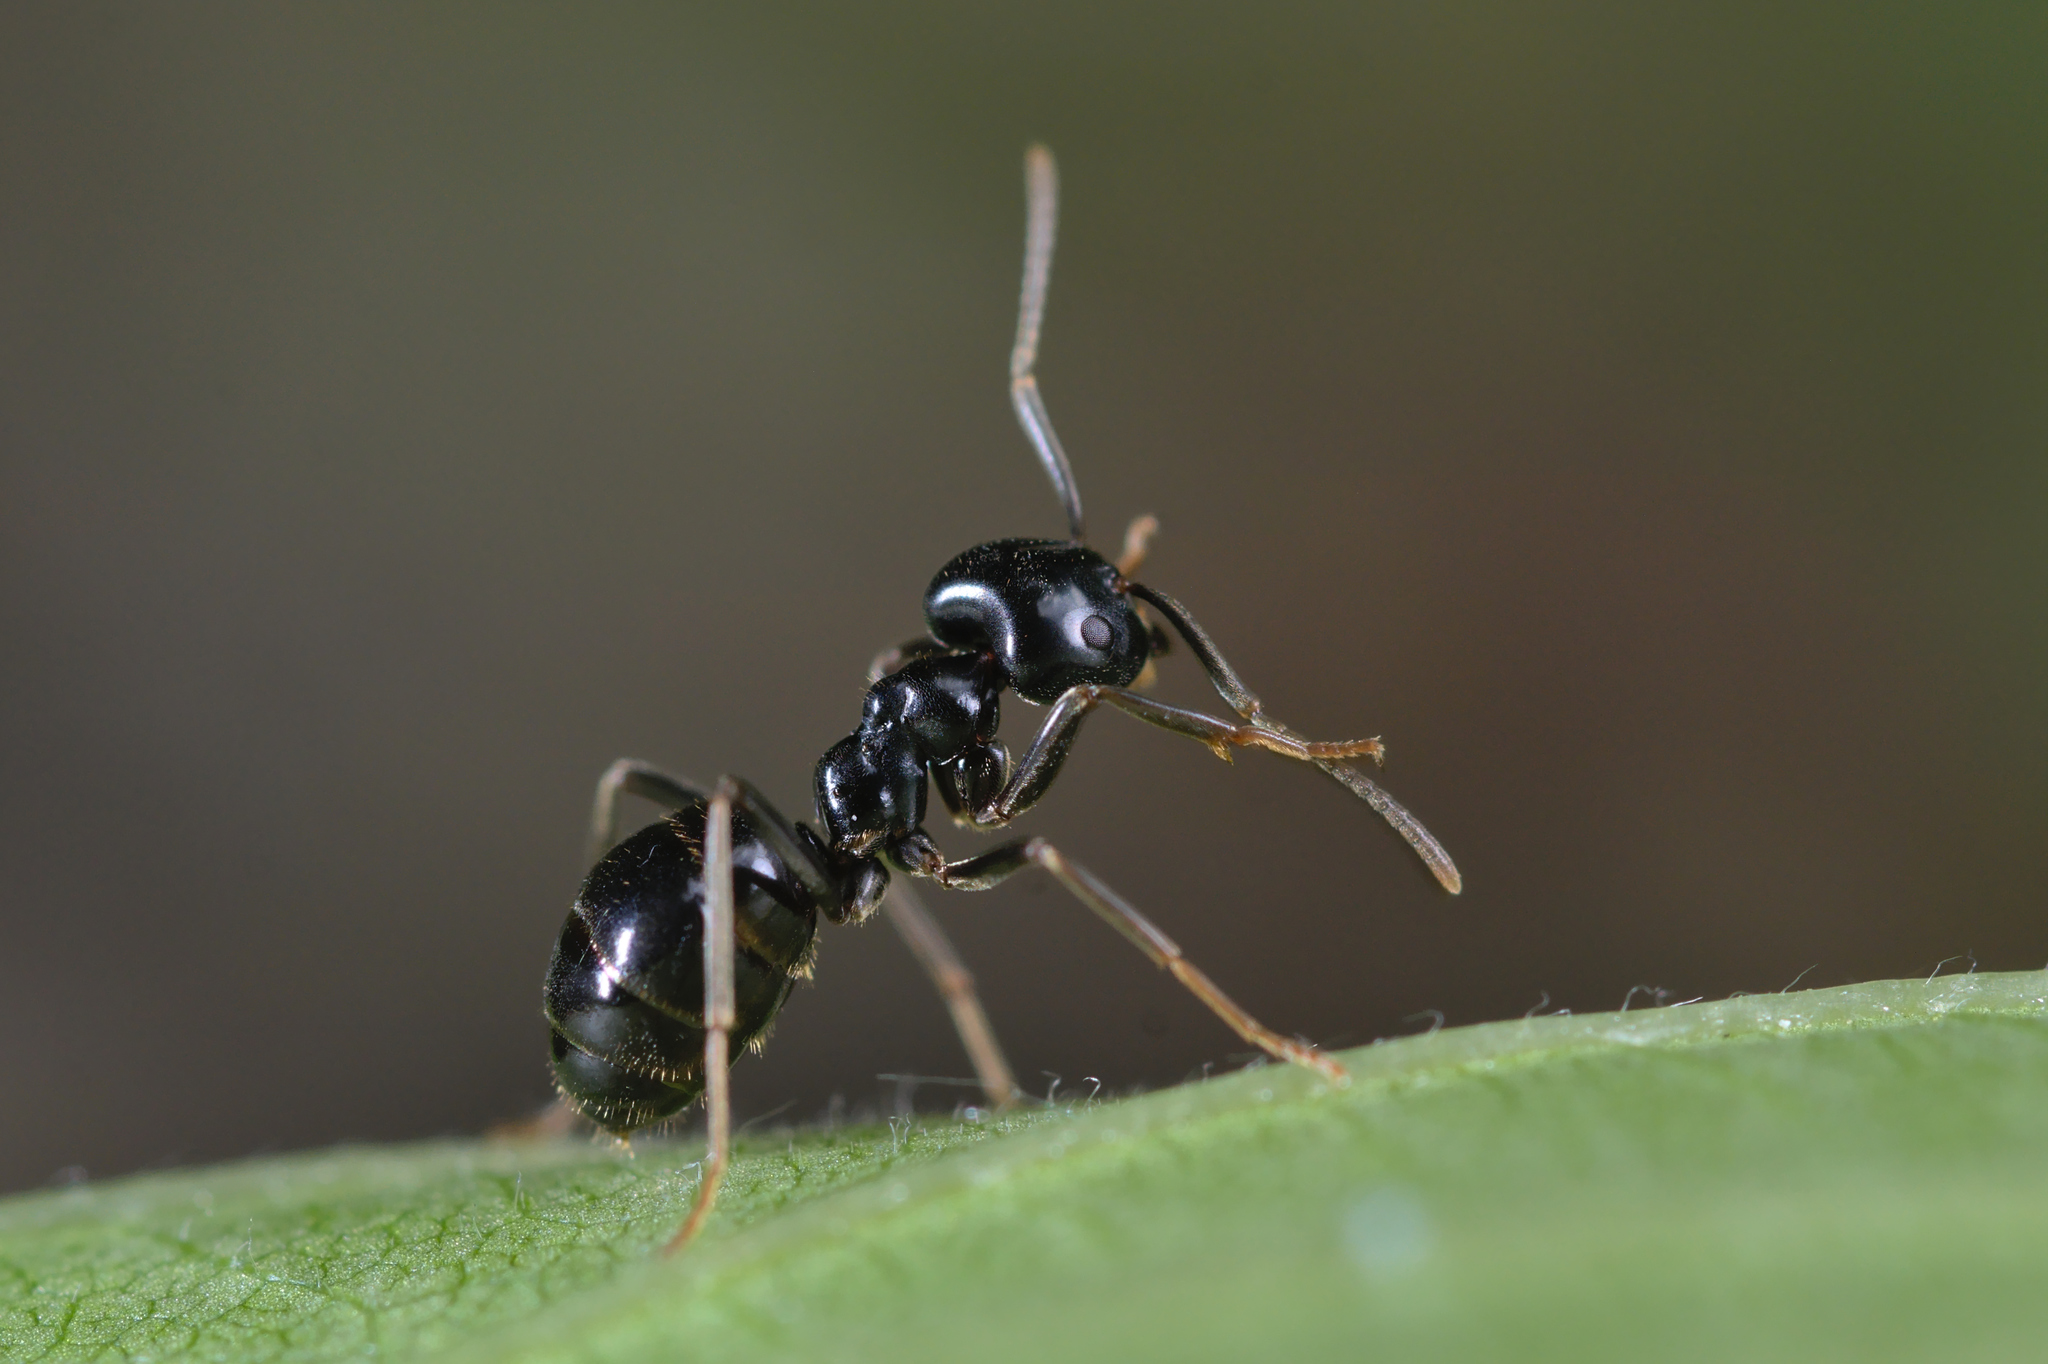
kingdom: Animalia
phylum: Arthropoda
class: Insecta
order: Hymenoptera
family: Formicidae
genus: Lasius
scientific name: Lasius fuliginosus
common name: Jet ant
